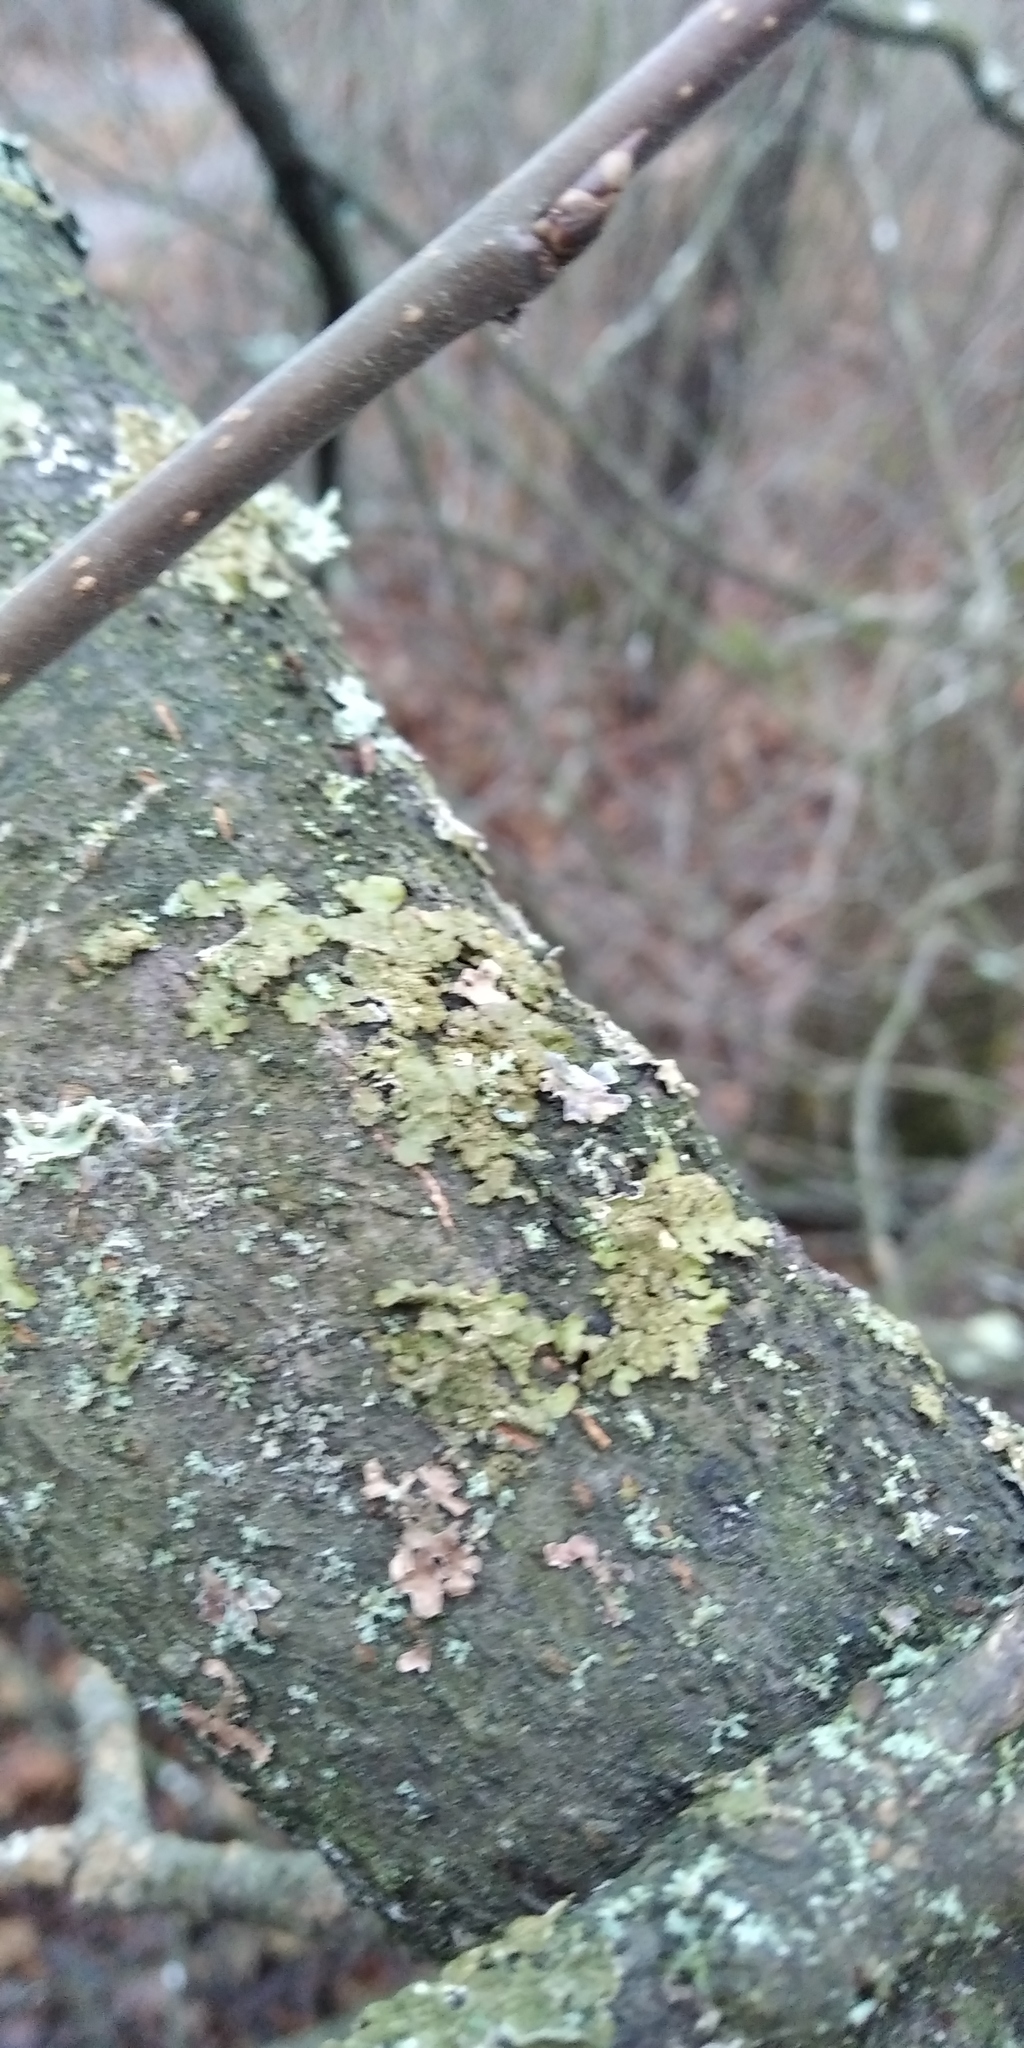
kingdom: Fungi
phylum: Ascomycota
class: Lecanoromycetes
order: Lecanorales
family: Parmeliaceae
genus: Melanelixia
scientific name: Melanelixia subaurifera
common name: Abraded camouflage lichen
